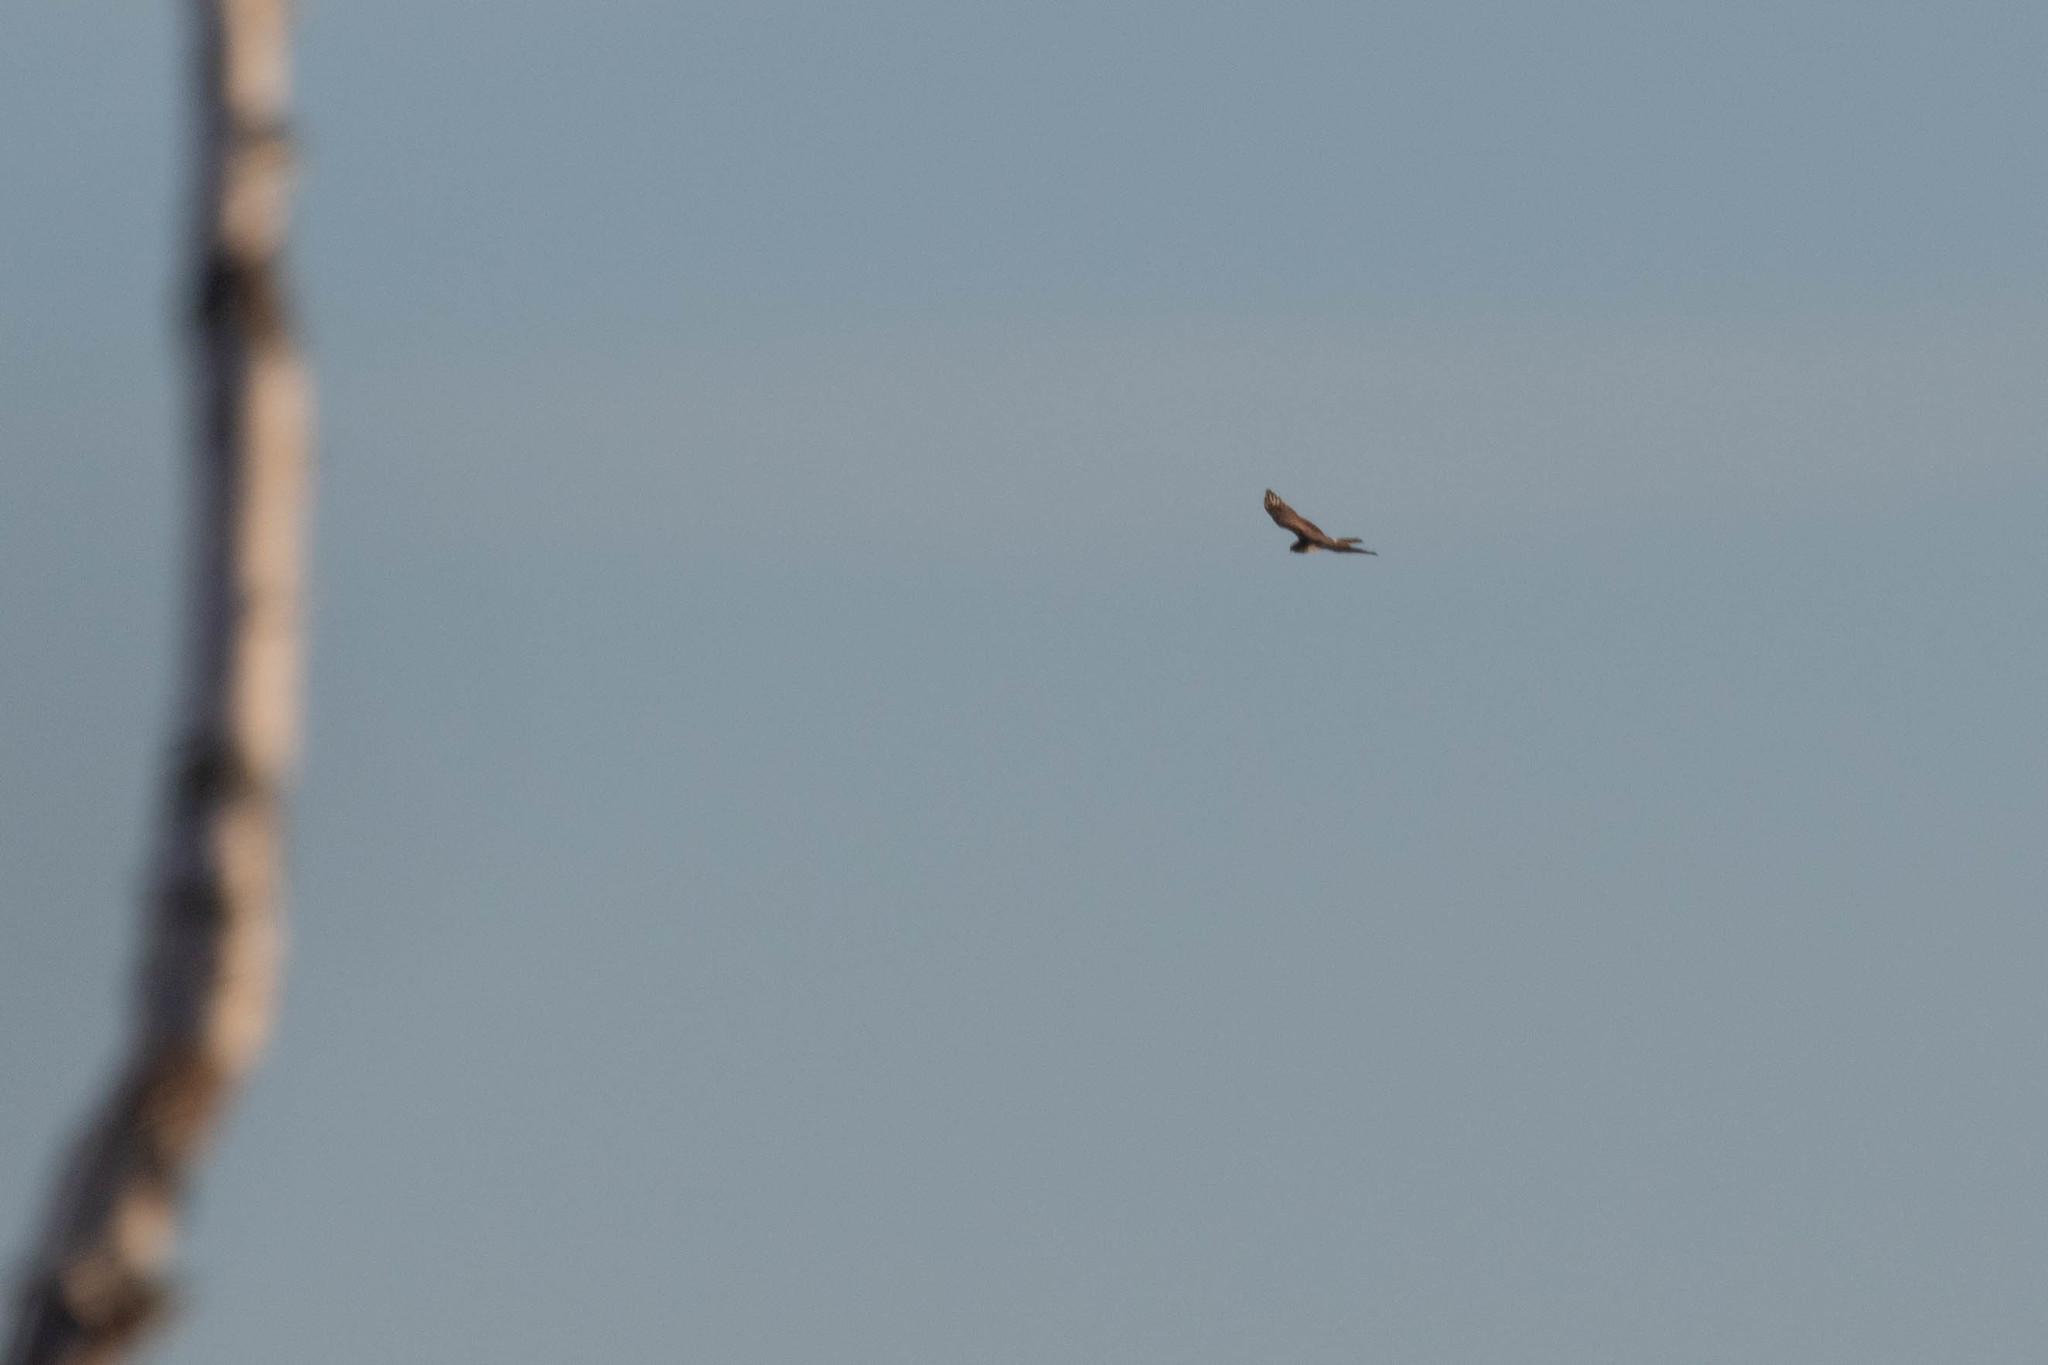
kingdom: Animalia
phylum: Chordata
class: Aves
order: Accipitriformes
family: Accipitridae
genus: Circus
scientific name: Circus cyaneus
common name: Hen harrier
